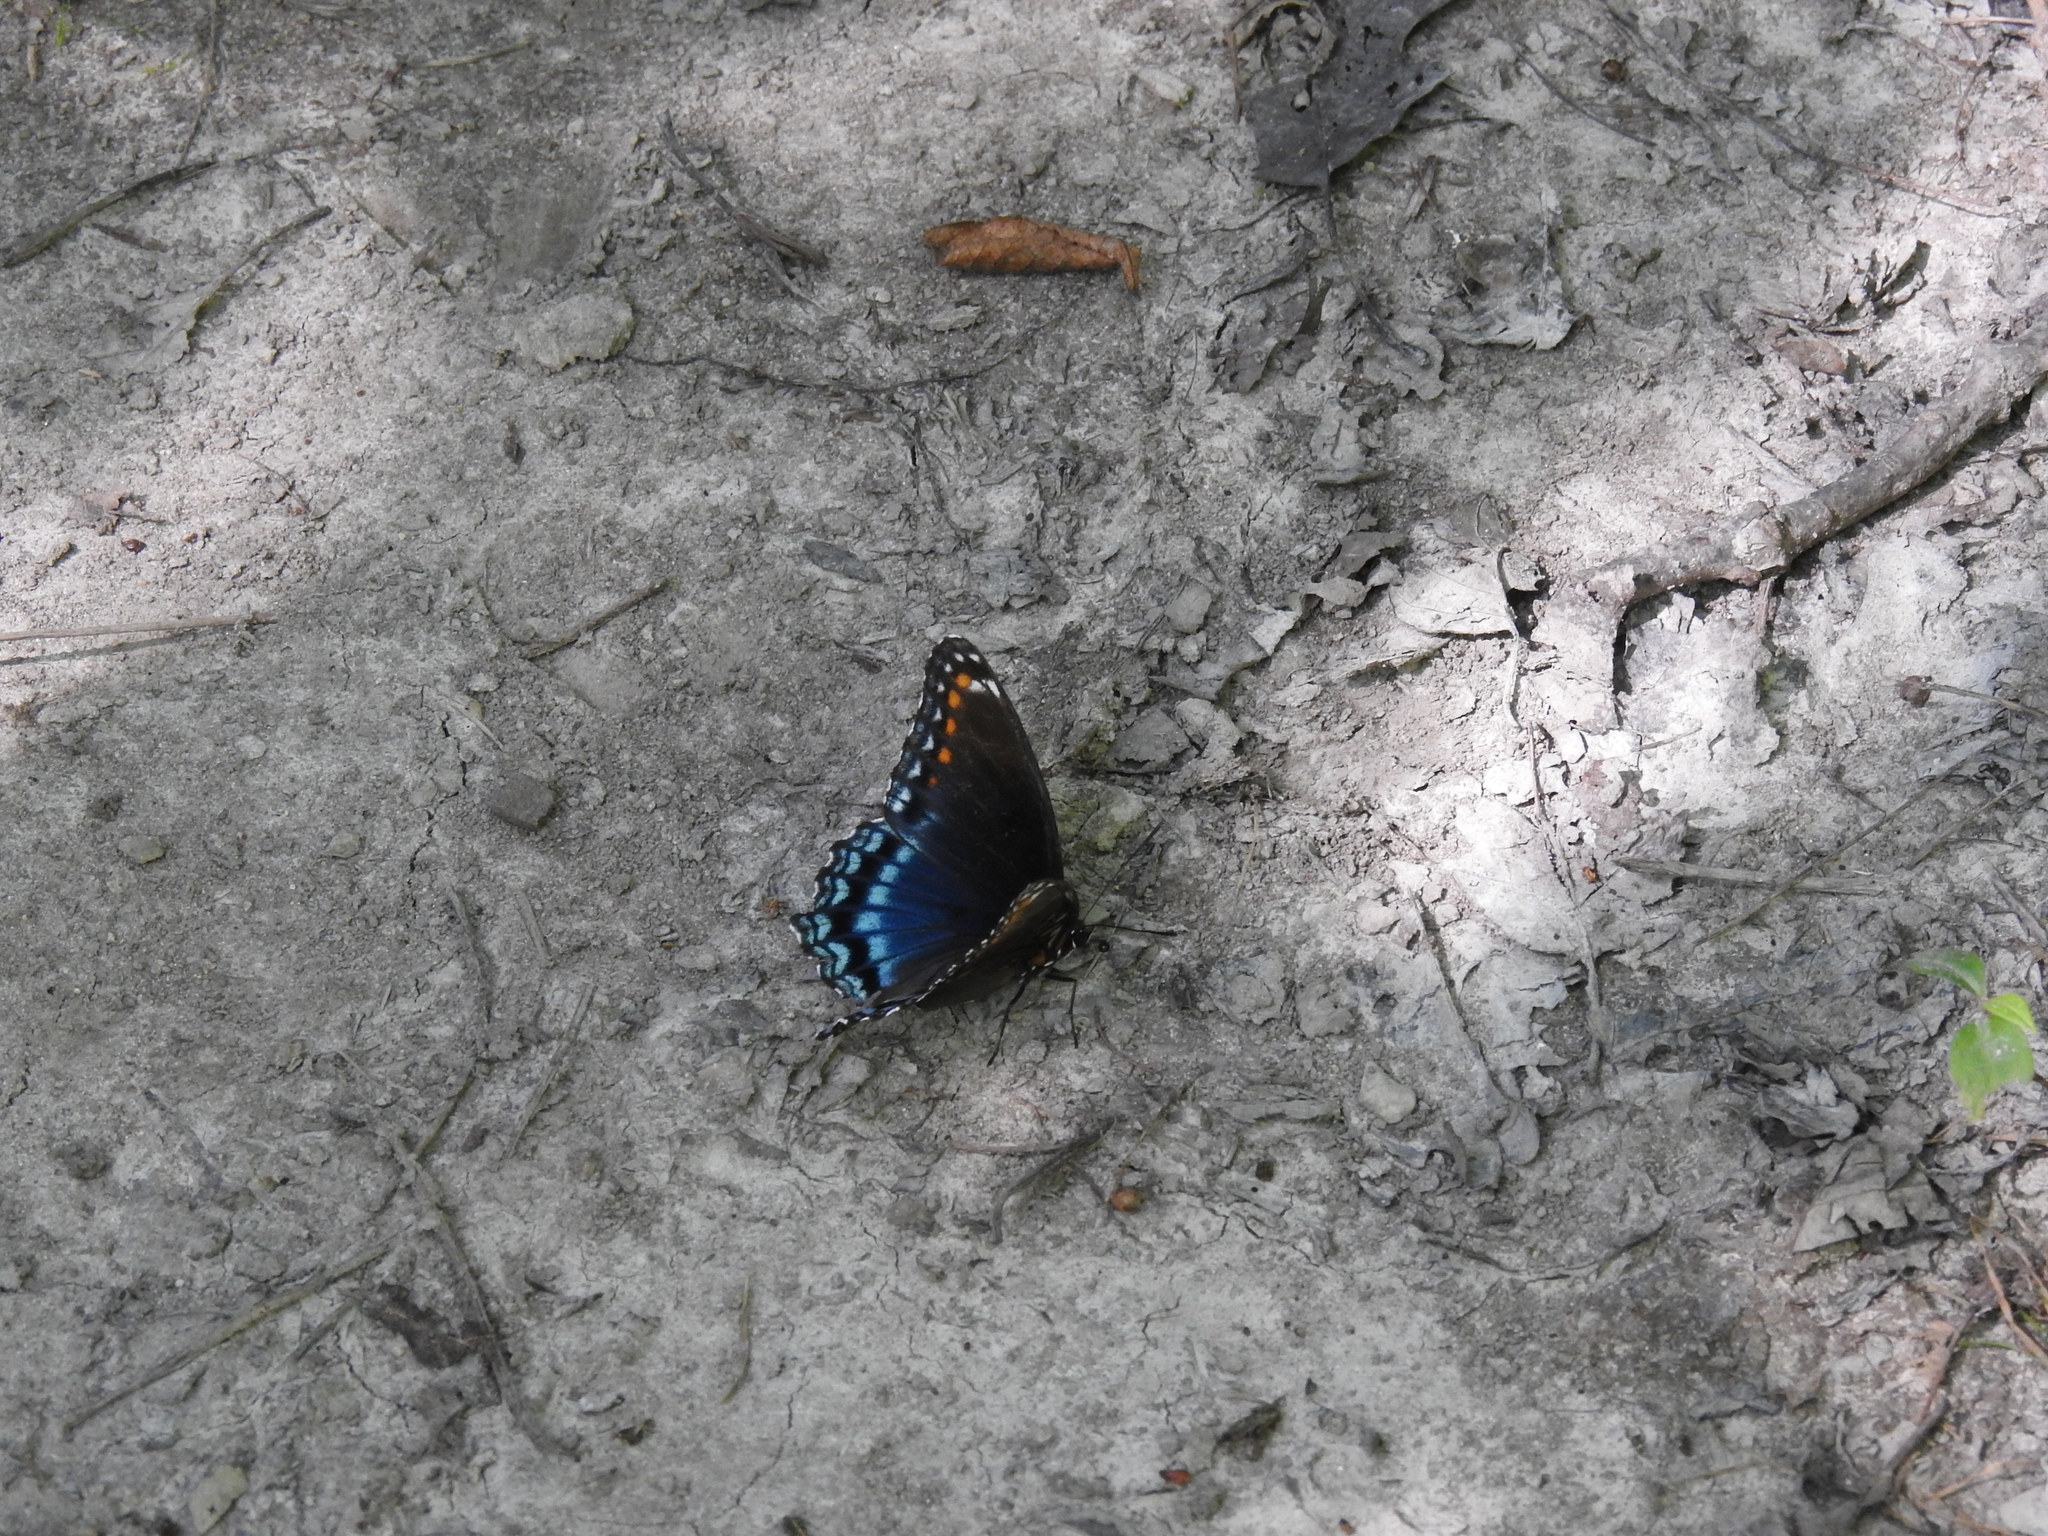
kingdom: Animalia
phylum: Arthropoda
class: Insecta
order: Lepidoptera
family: Nymphalidae
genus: Limenitis
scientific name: Limenitis astyanax
